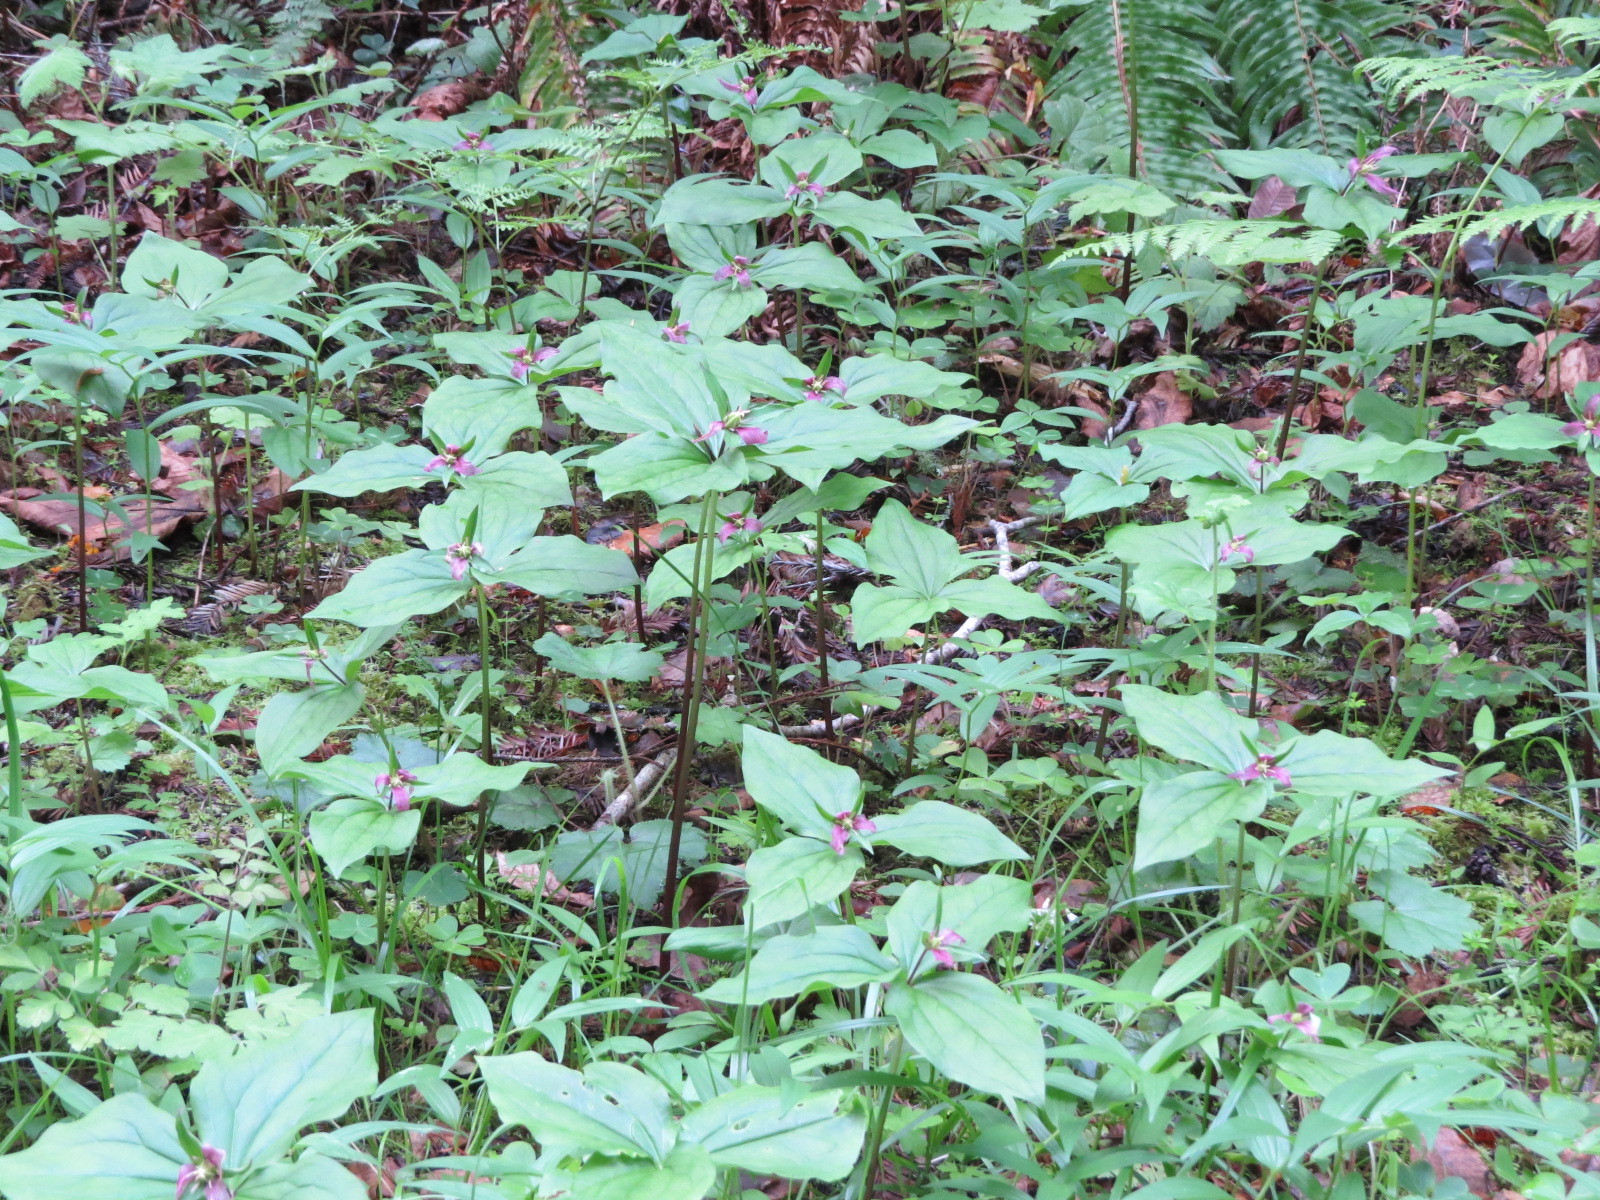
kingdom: Plantae
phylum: Tracheophyta
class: Liliopsida
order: Liliales
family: Melanthiaceae
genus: Trillium
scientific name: Trillium ovatum
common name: Pacific trillium
